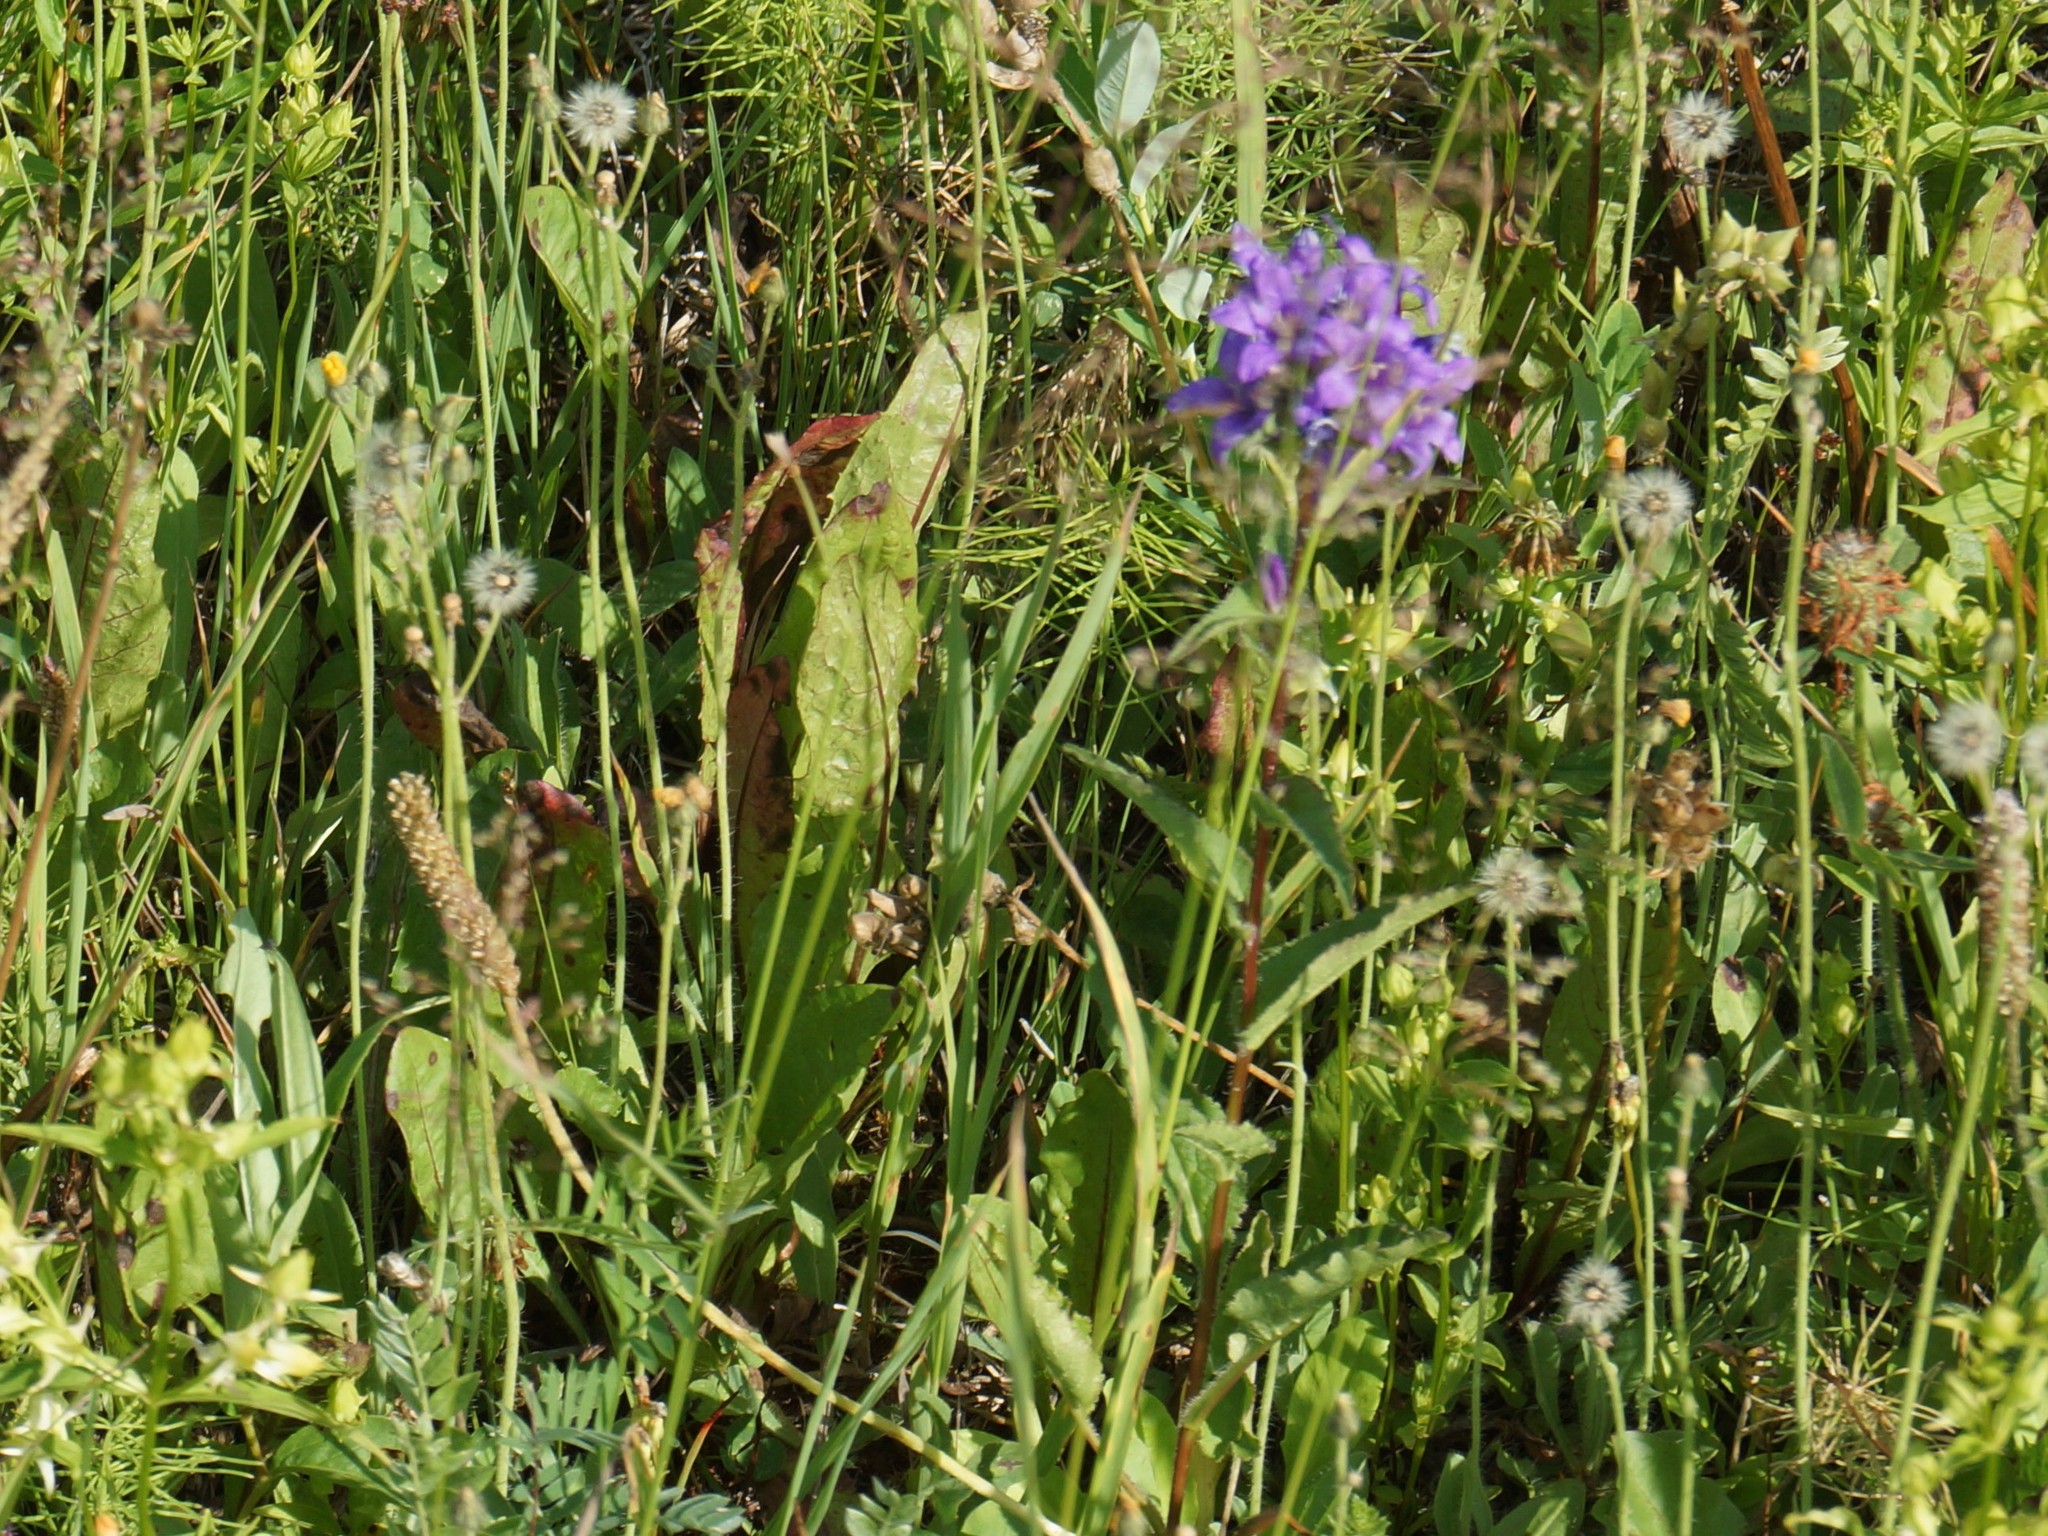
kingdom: Plantae
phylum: Tracheophyta
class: Magnoliopsida
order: Asterales
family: Campanulaceae
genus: Campanula
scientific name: Campanula glomerata
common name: Clustered bellflower
